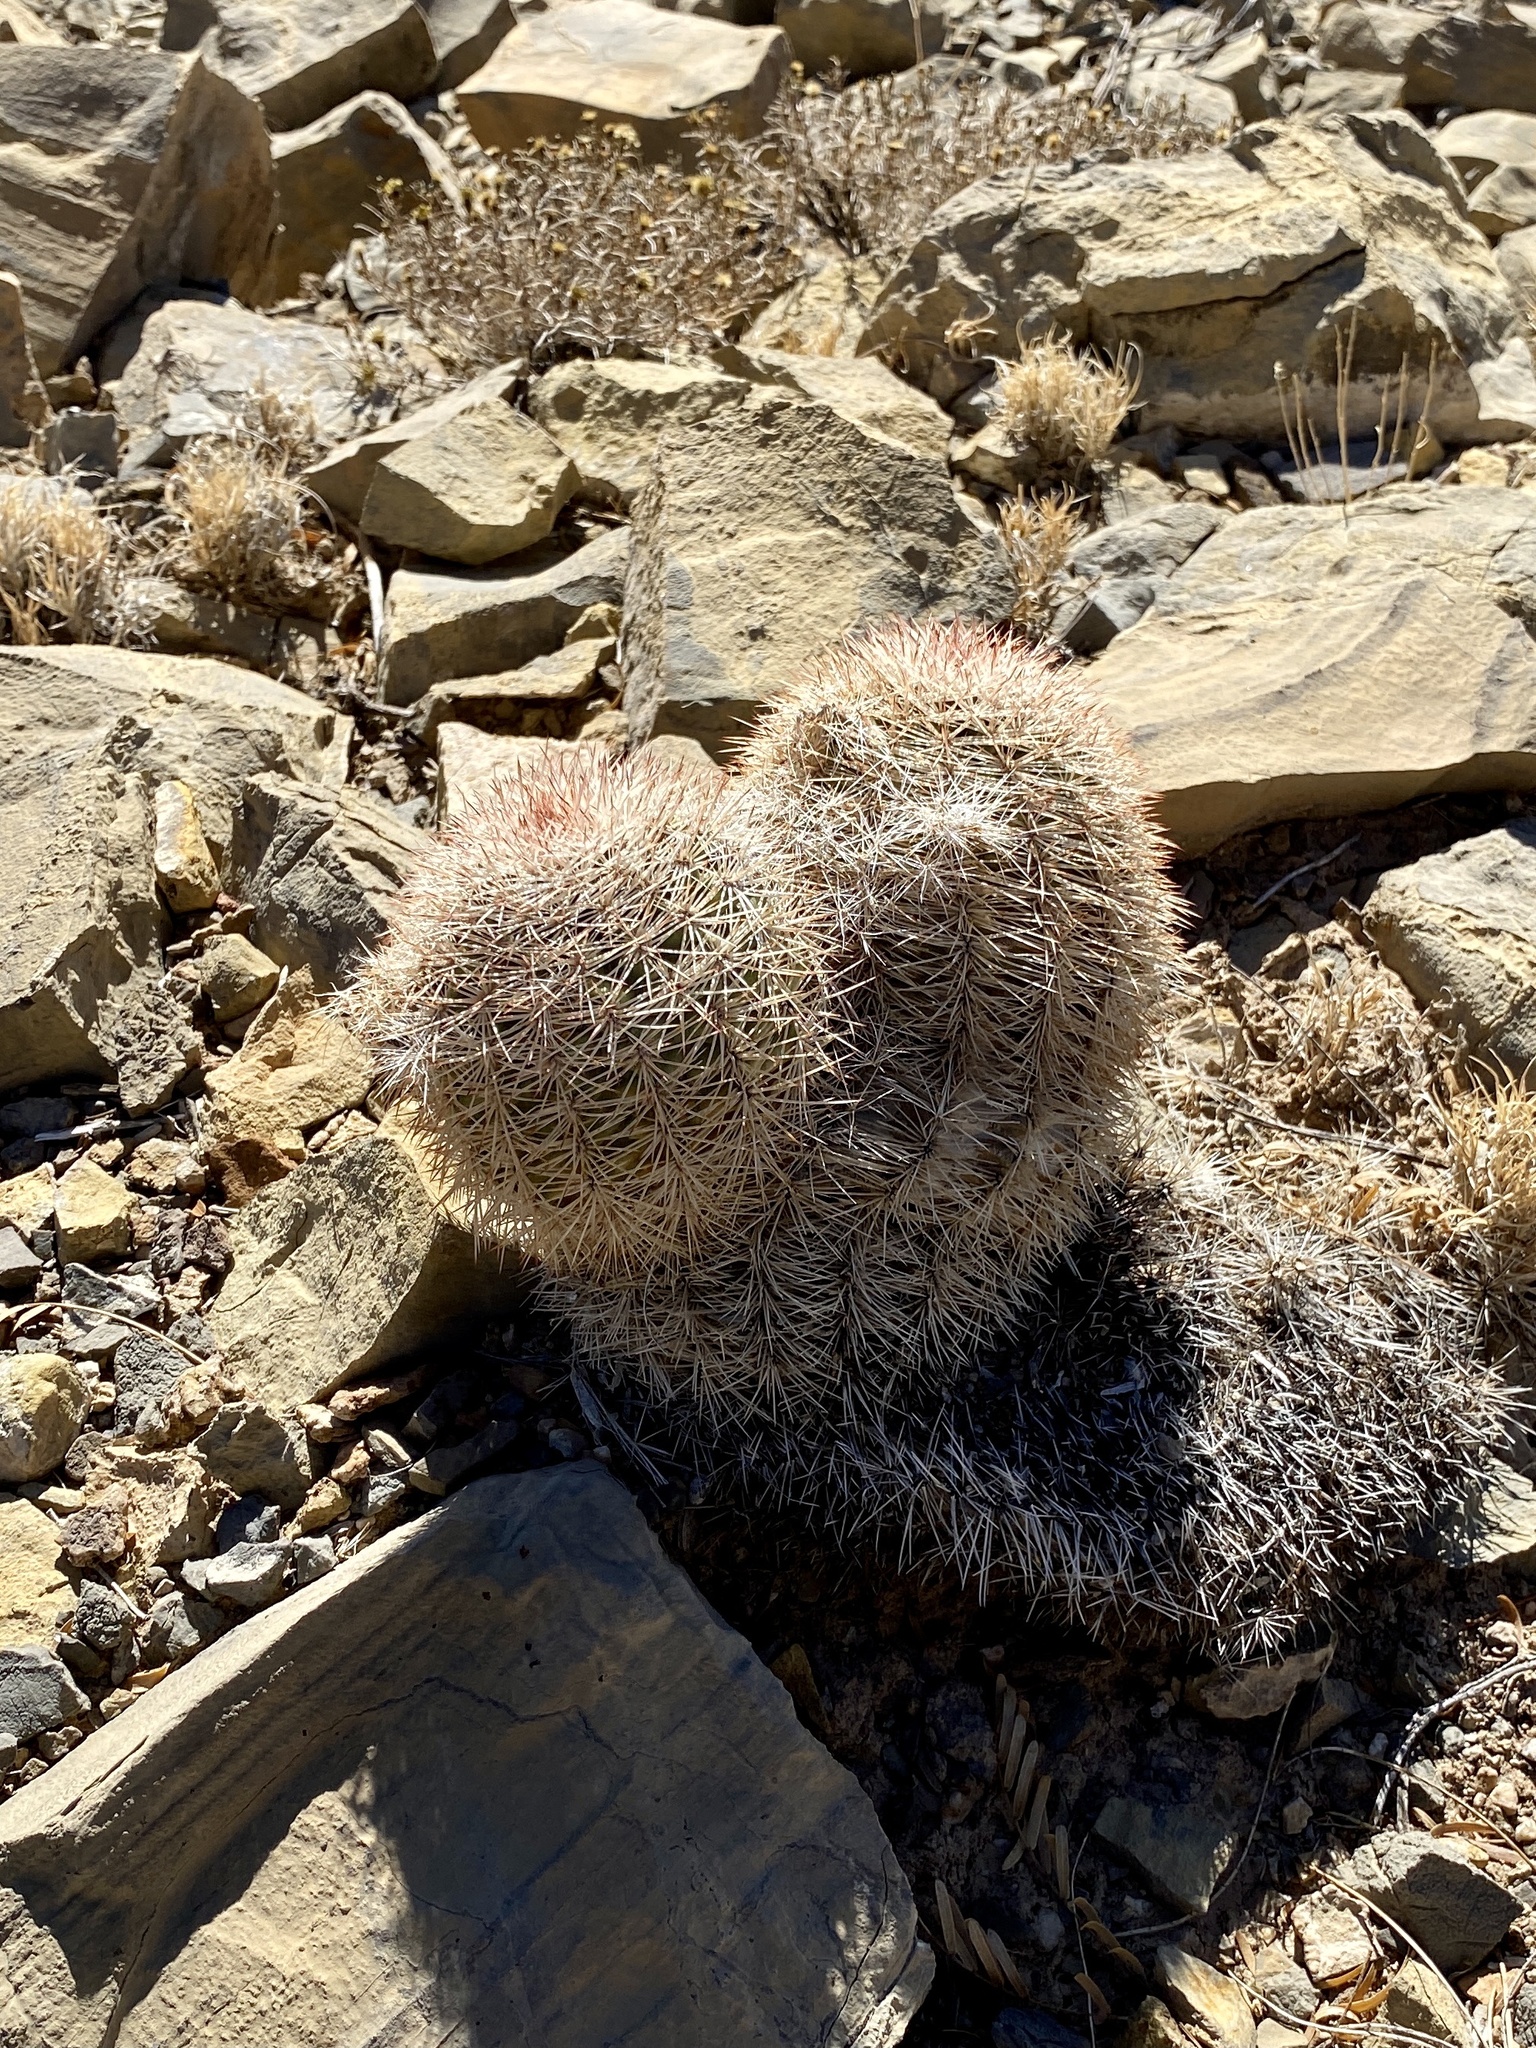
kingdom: Plantae
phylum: Tracheophyta
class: Magnoliopsida
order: Caryophyllales
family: Cactaceae
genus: Echinocereus
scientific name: Echinocereus dasyacanthus
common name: Spiny hedgehog cactus
